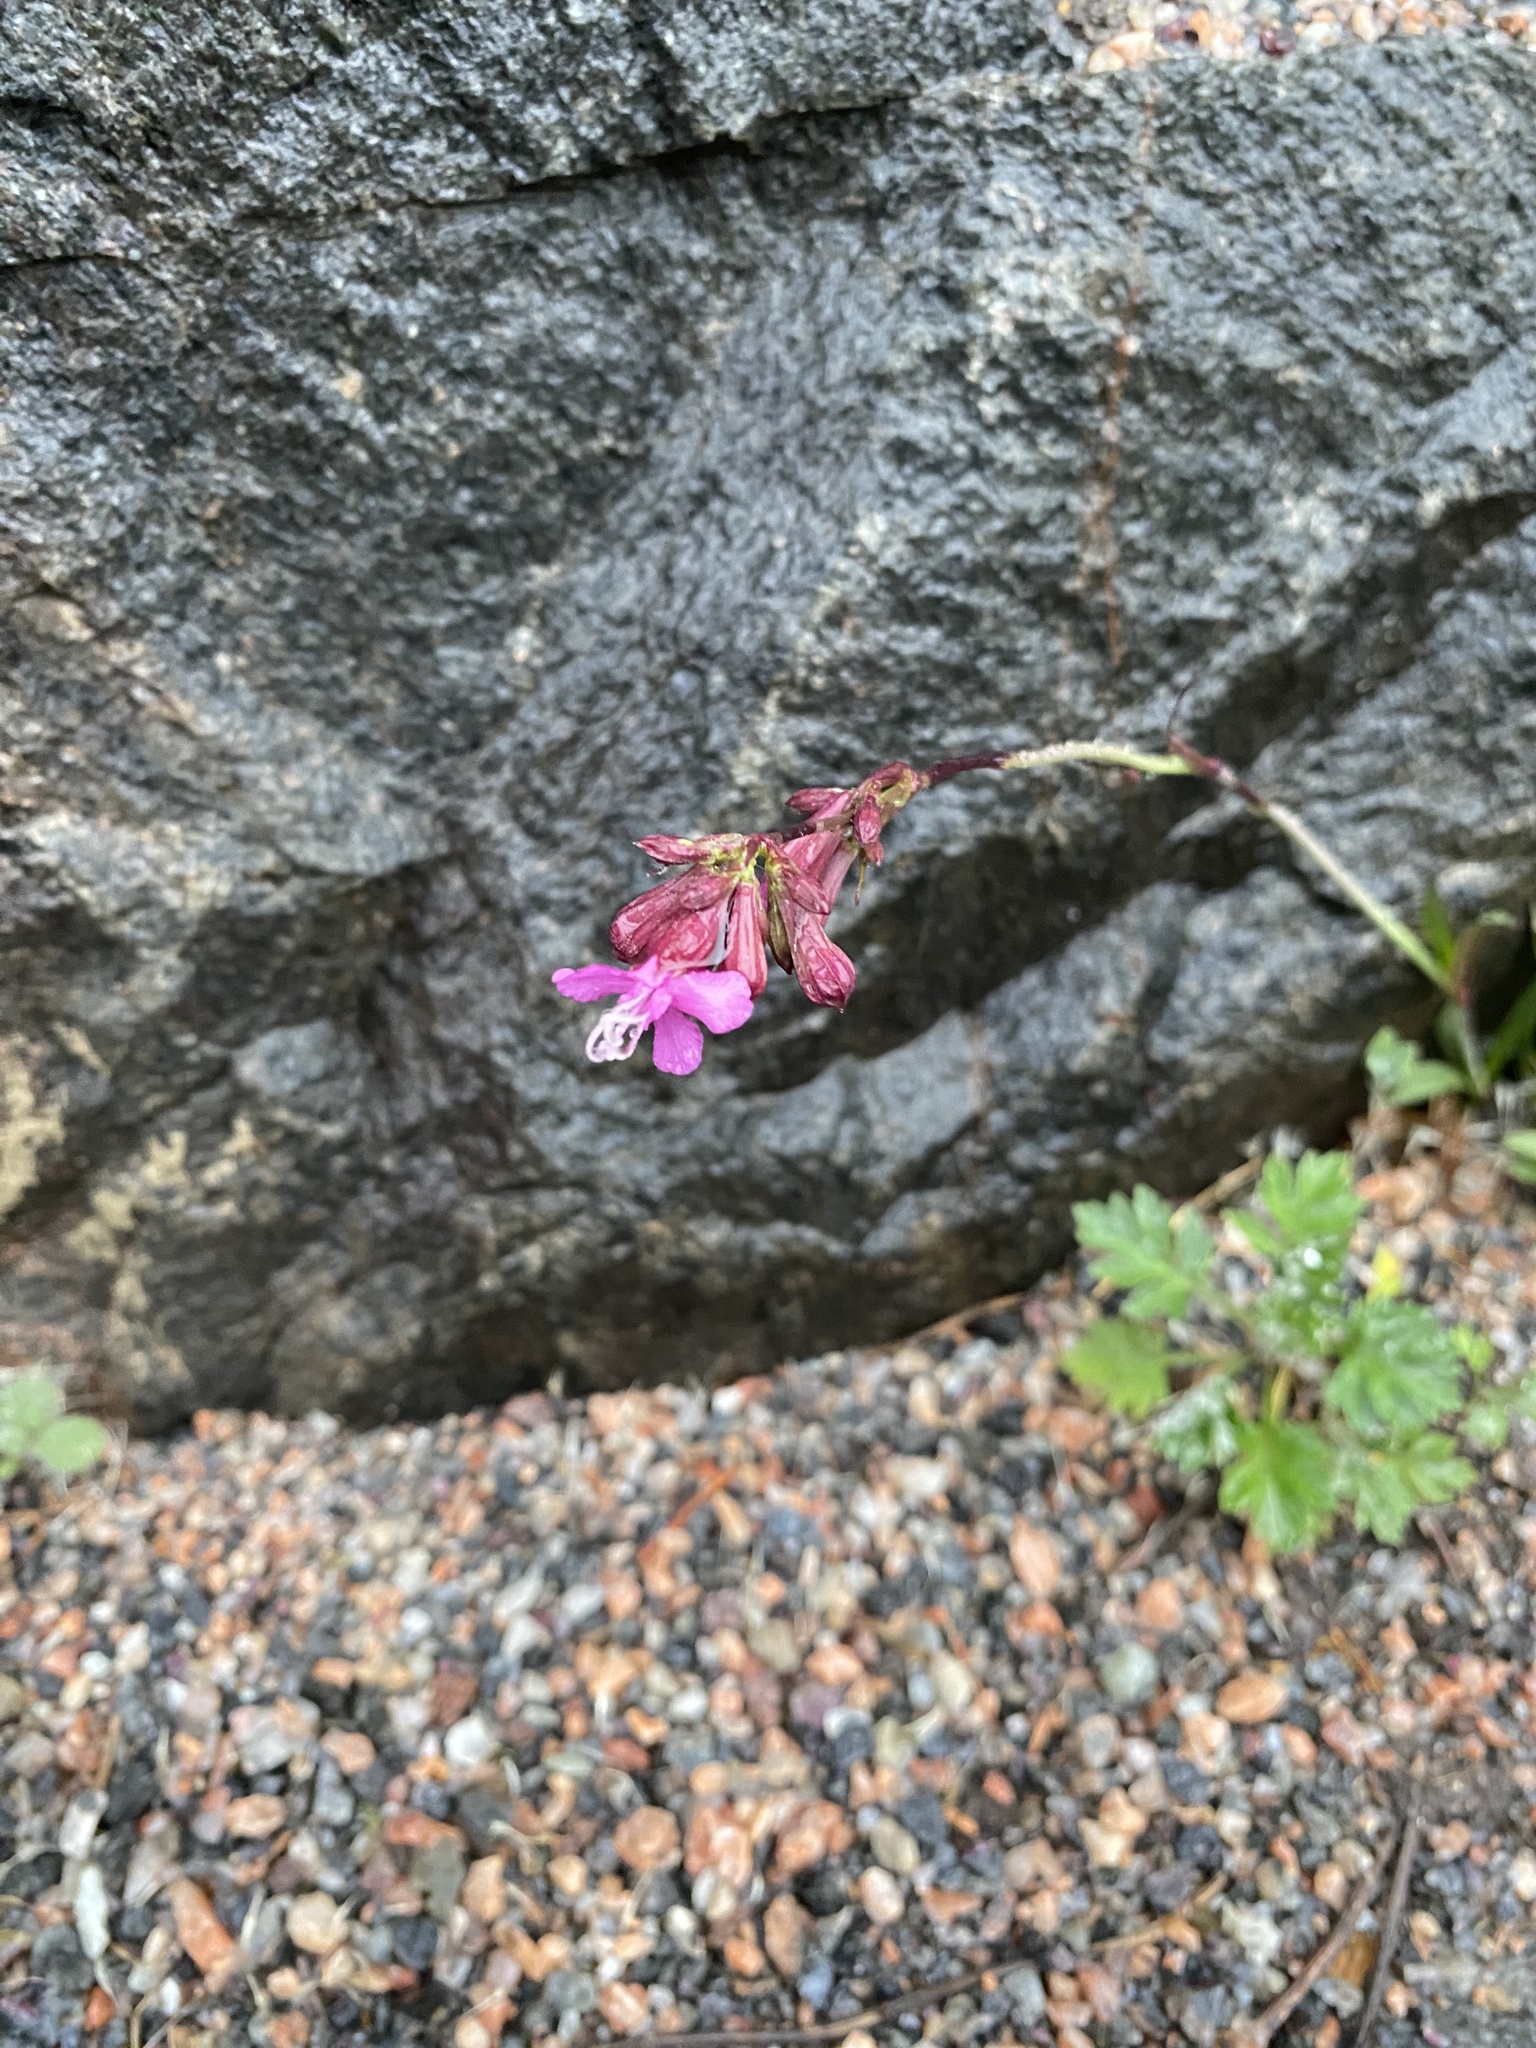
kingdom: Plantae
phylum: Tracheophyta
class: Magnoliopsida
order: Caryophyllales
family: Caryophyllaceae
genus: Viscaria
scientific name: Viscaria vulgaris
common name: Clammy campion
